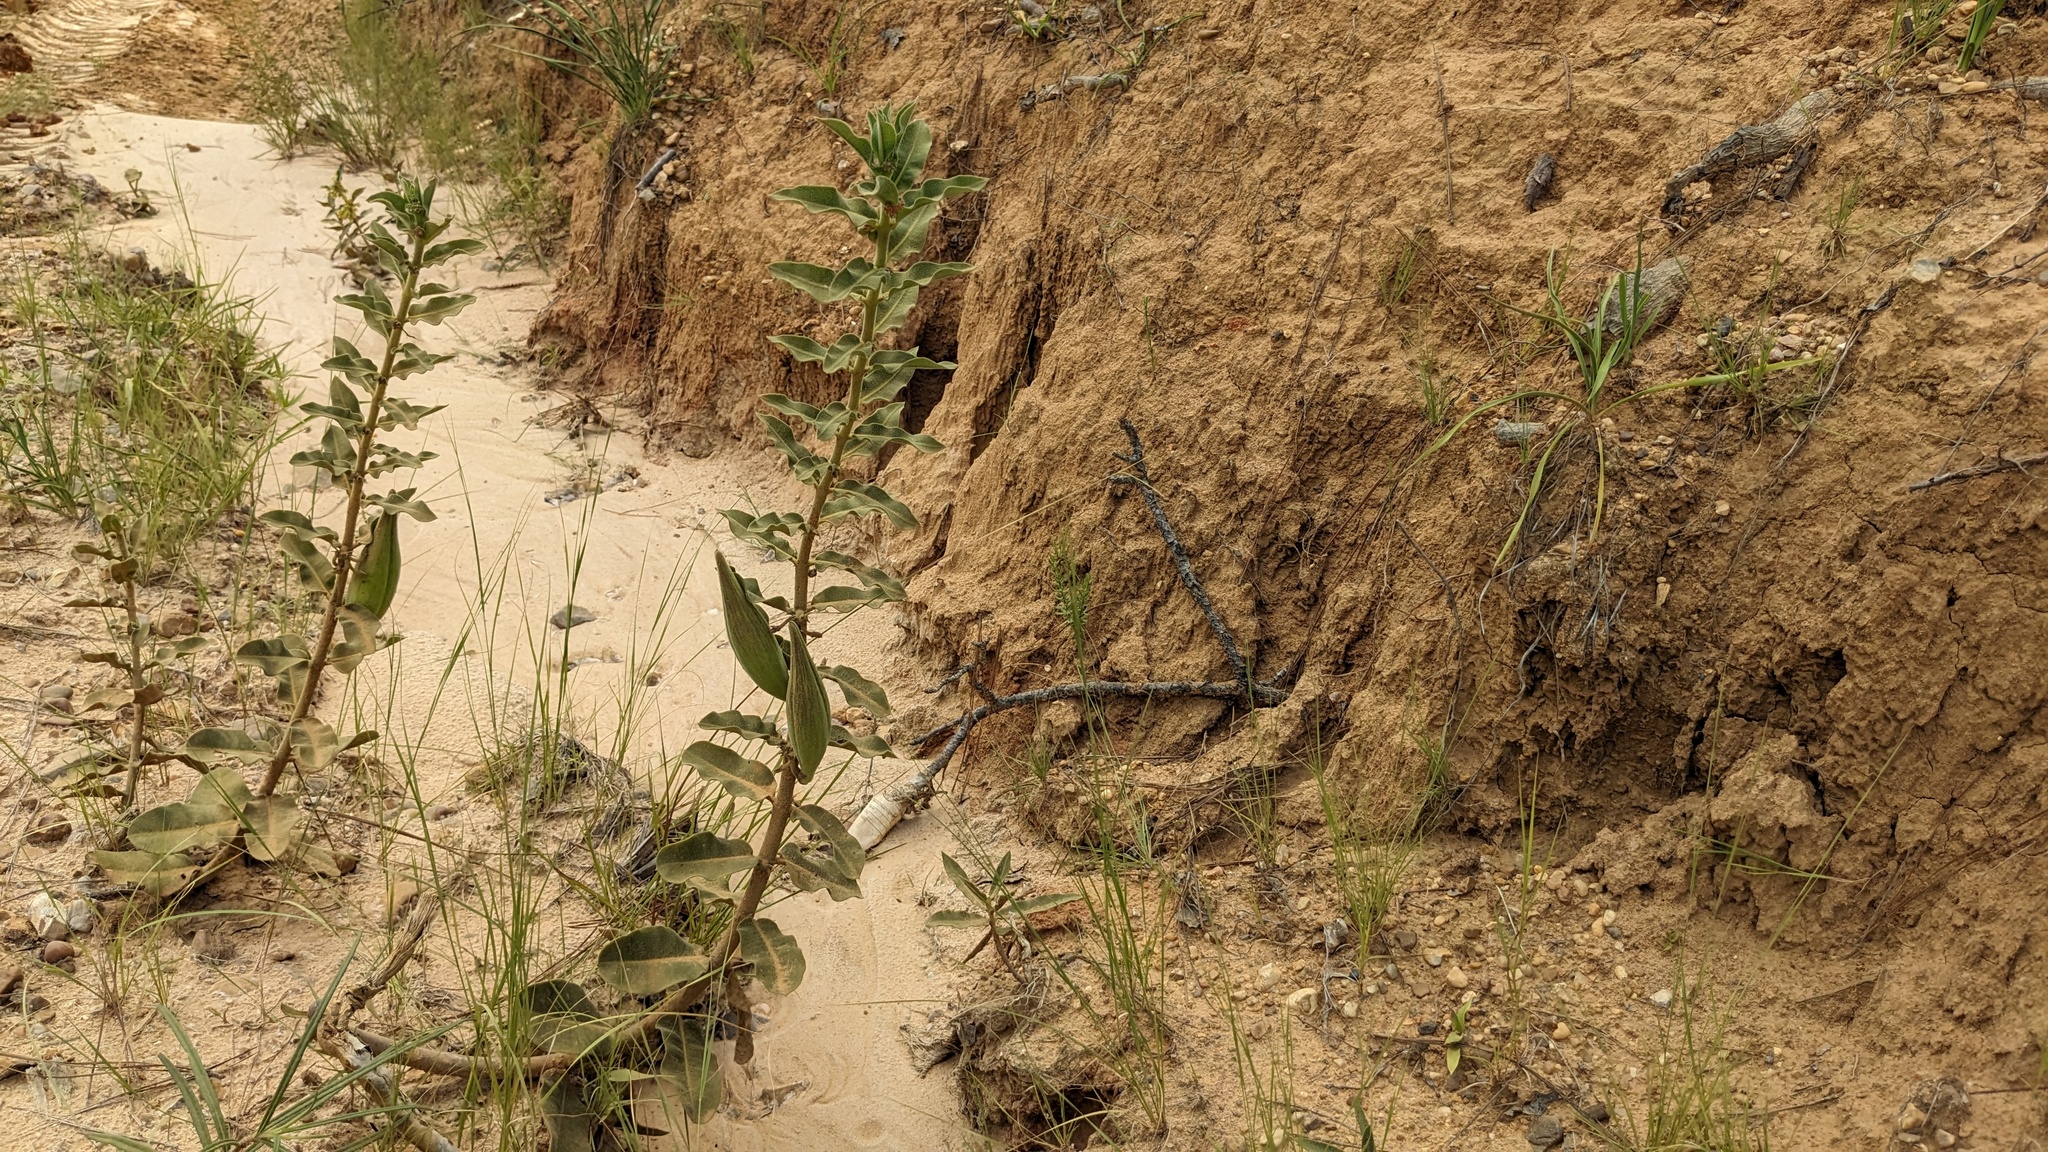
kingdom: Plantae
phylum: Tracheophyta
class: Magnoliopsida
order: Gentianales
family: Apocynaceae
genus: Asclepias
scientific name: Asclepias obovata
